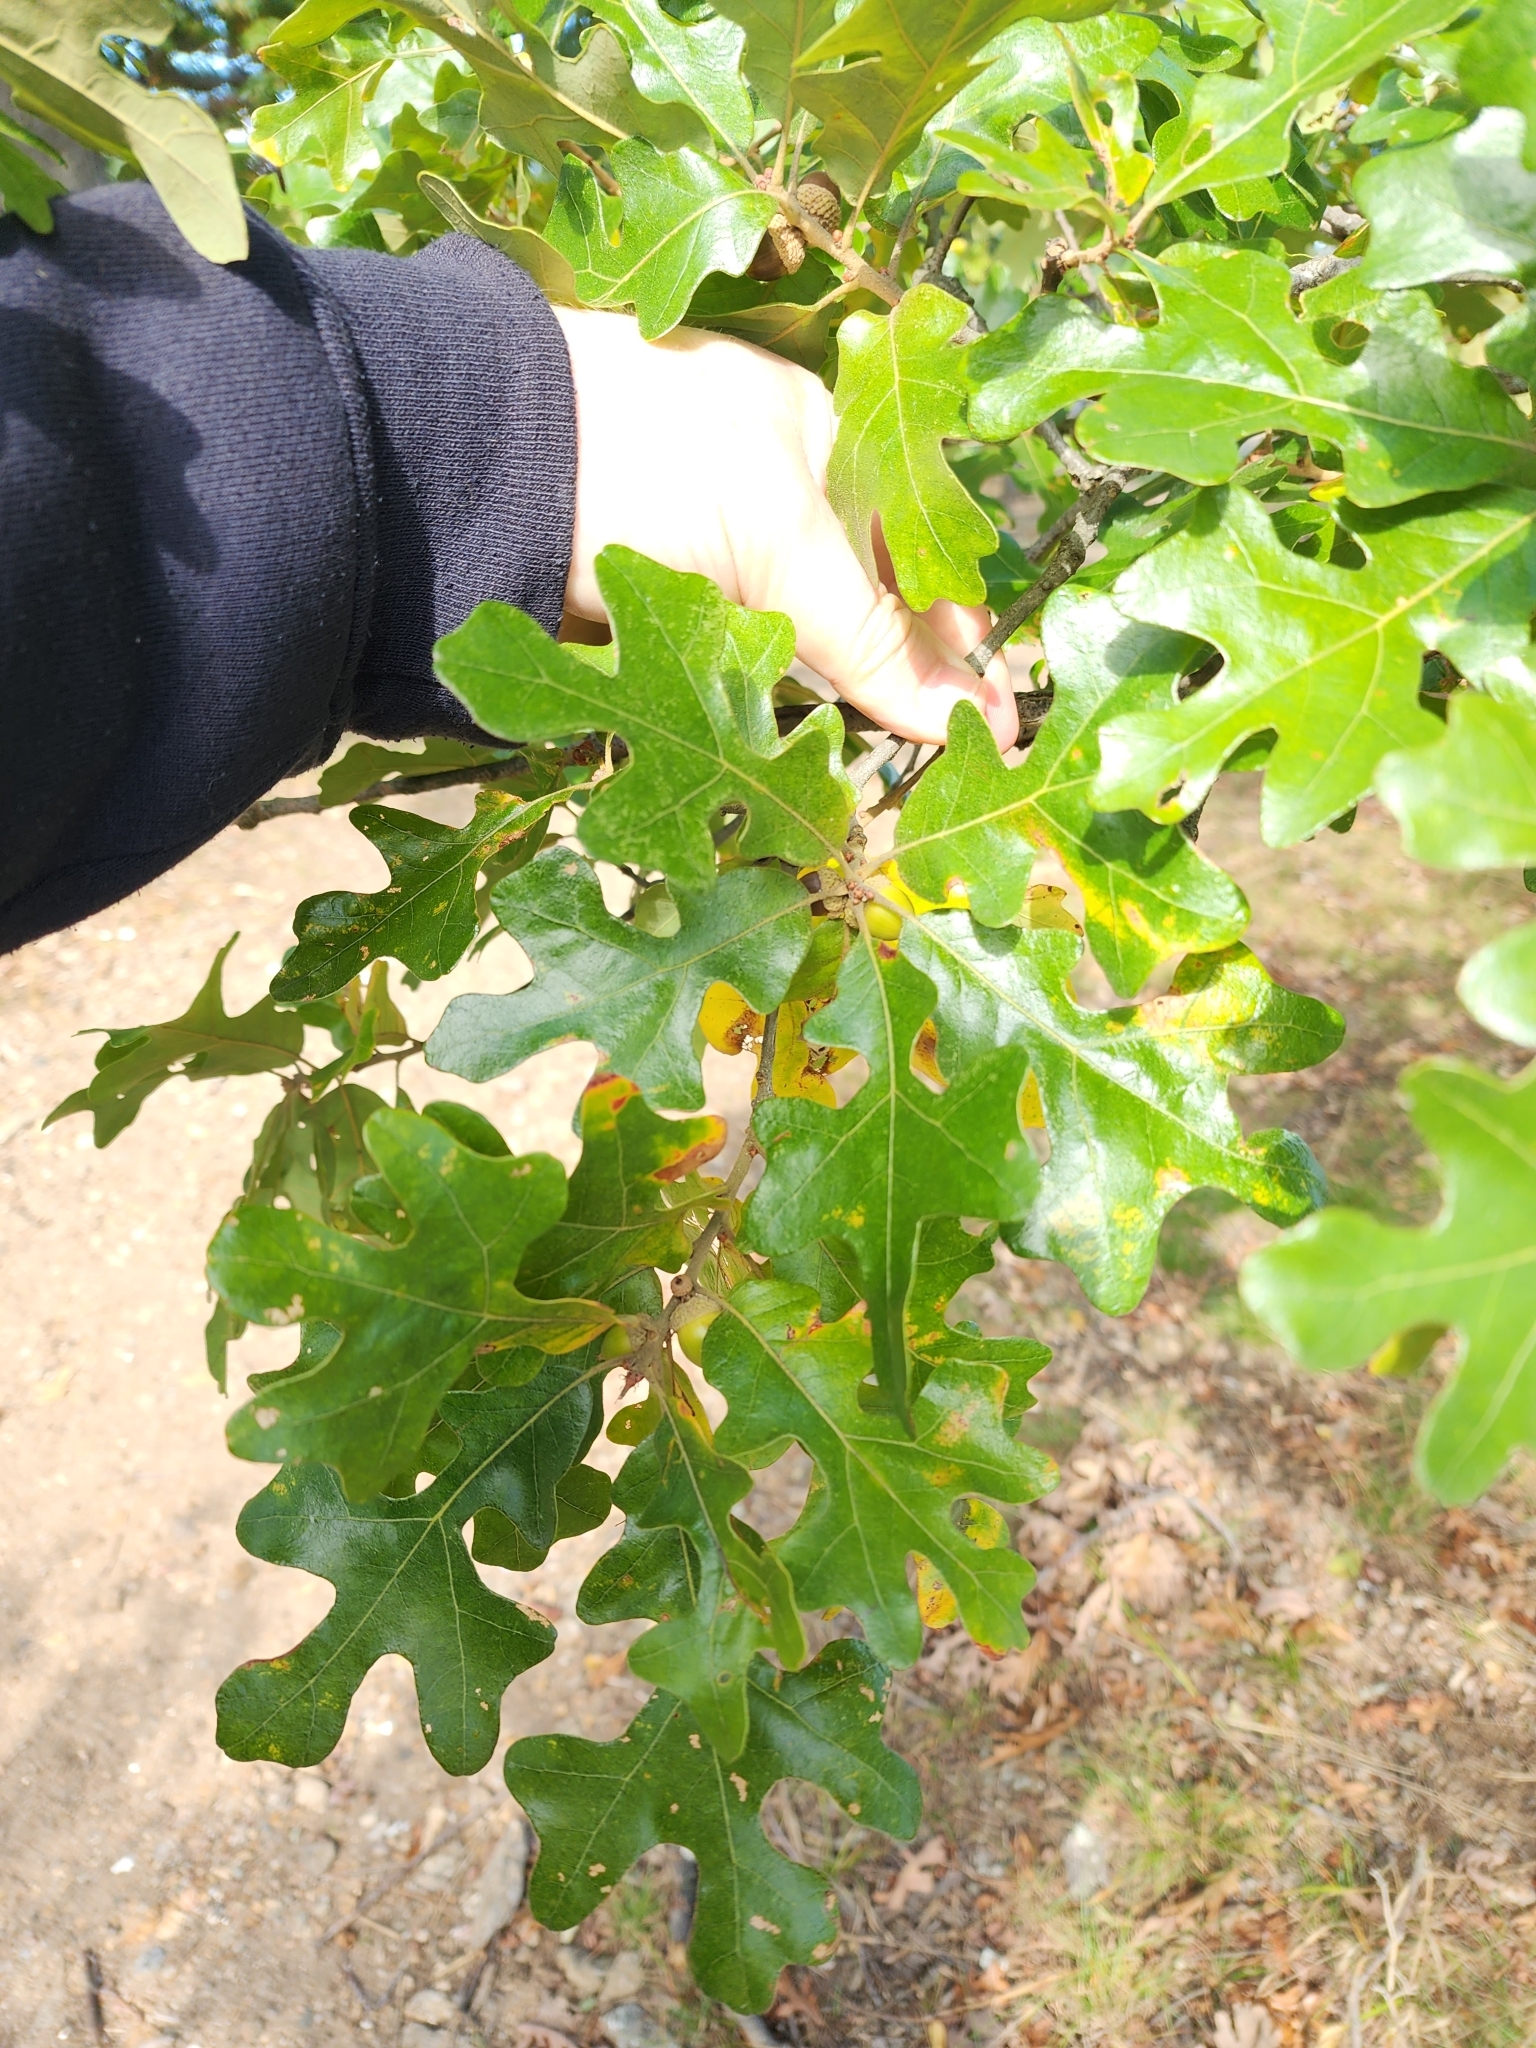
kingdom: Plantae
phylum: Tracheophyta
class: Magnoliopsida
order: Fagales
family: Fagaceae
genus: Quercus
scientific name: Quercus stellata
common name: Post oak
